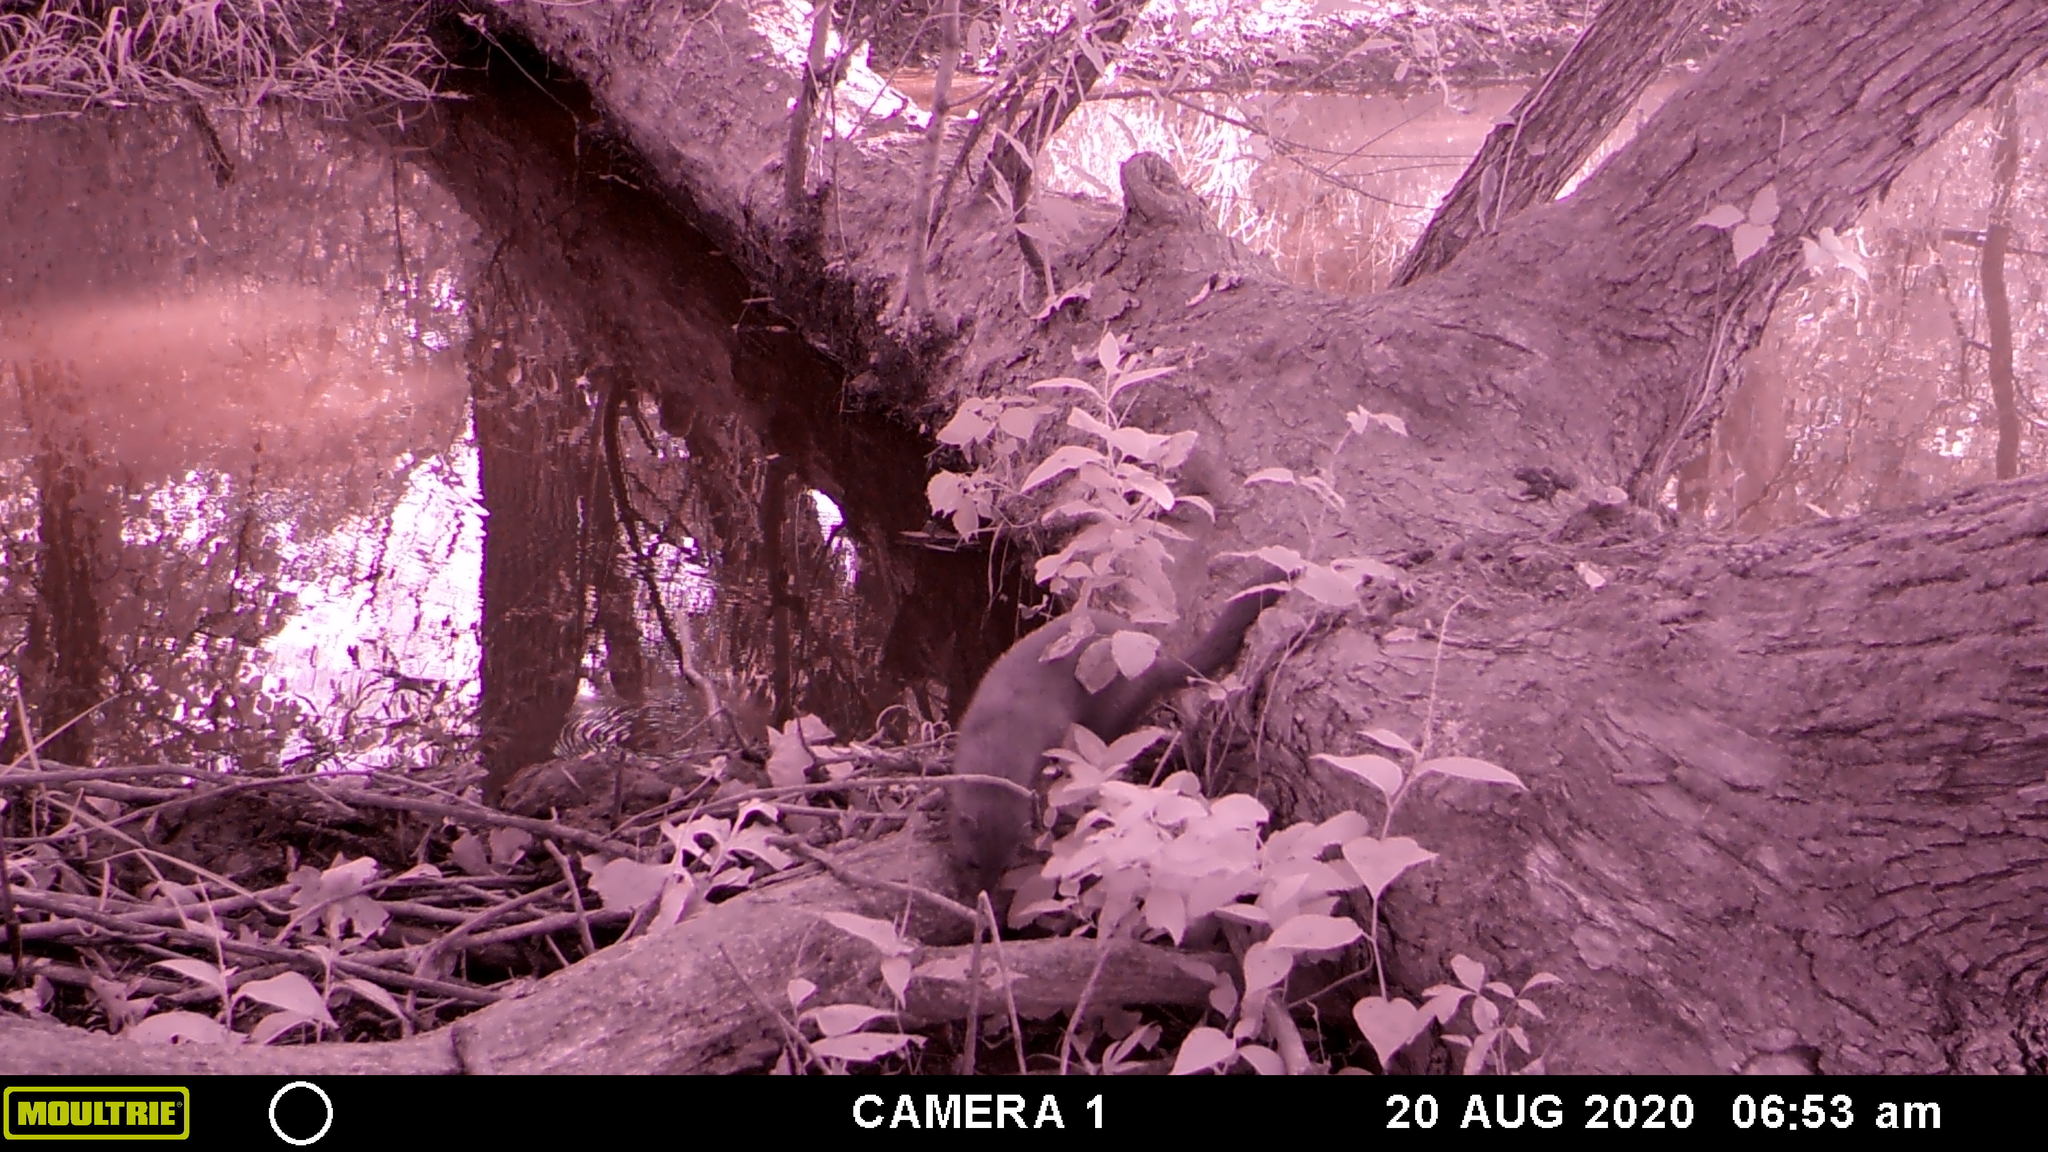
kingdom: Animalia
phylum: Chordata
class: Mammalia
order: Carnivora
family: Mustelidae
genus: Mustela
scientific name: Mustela
